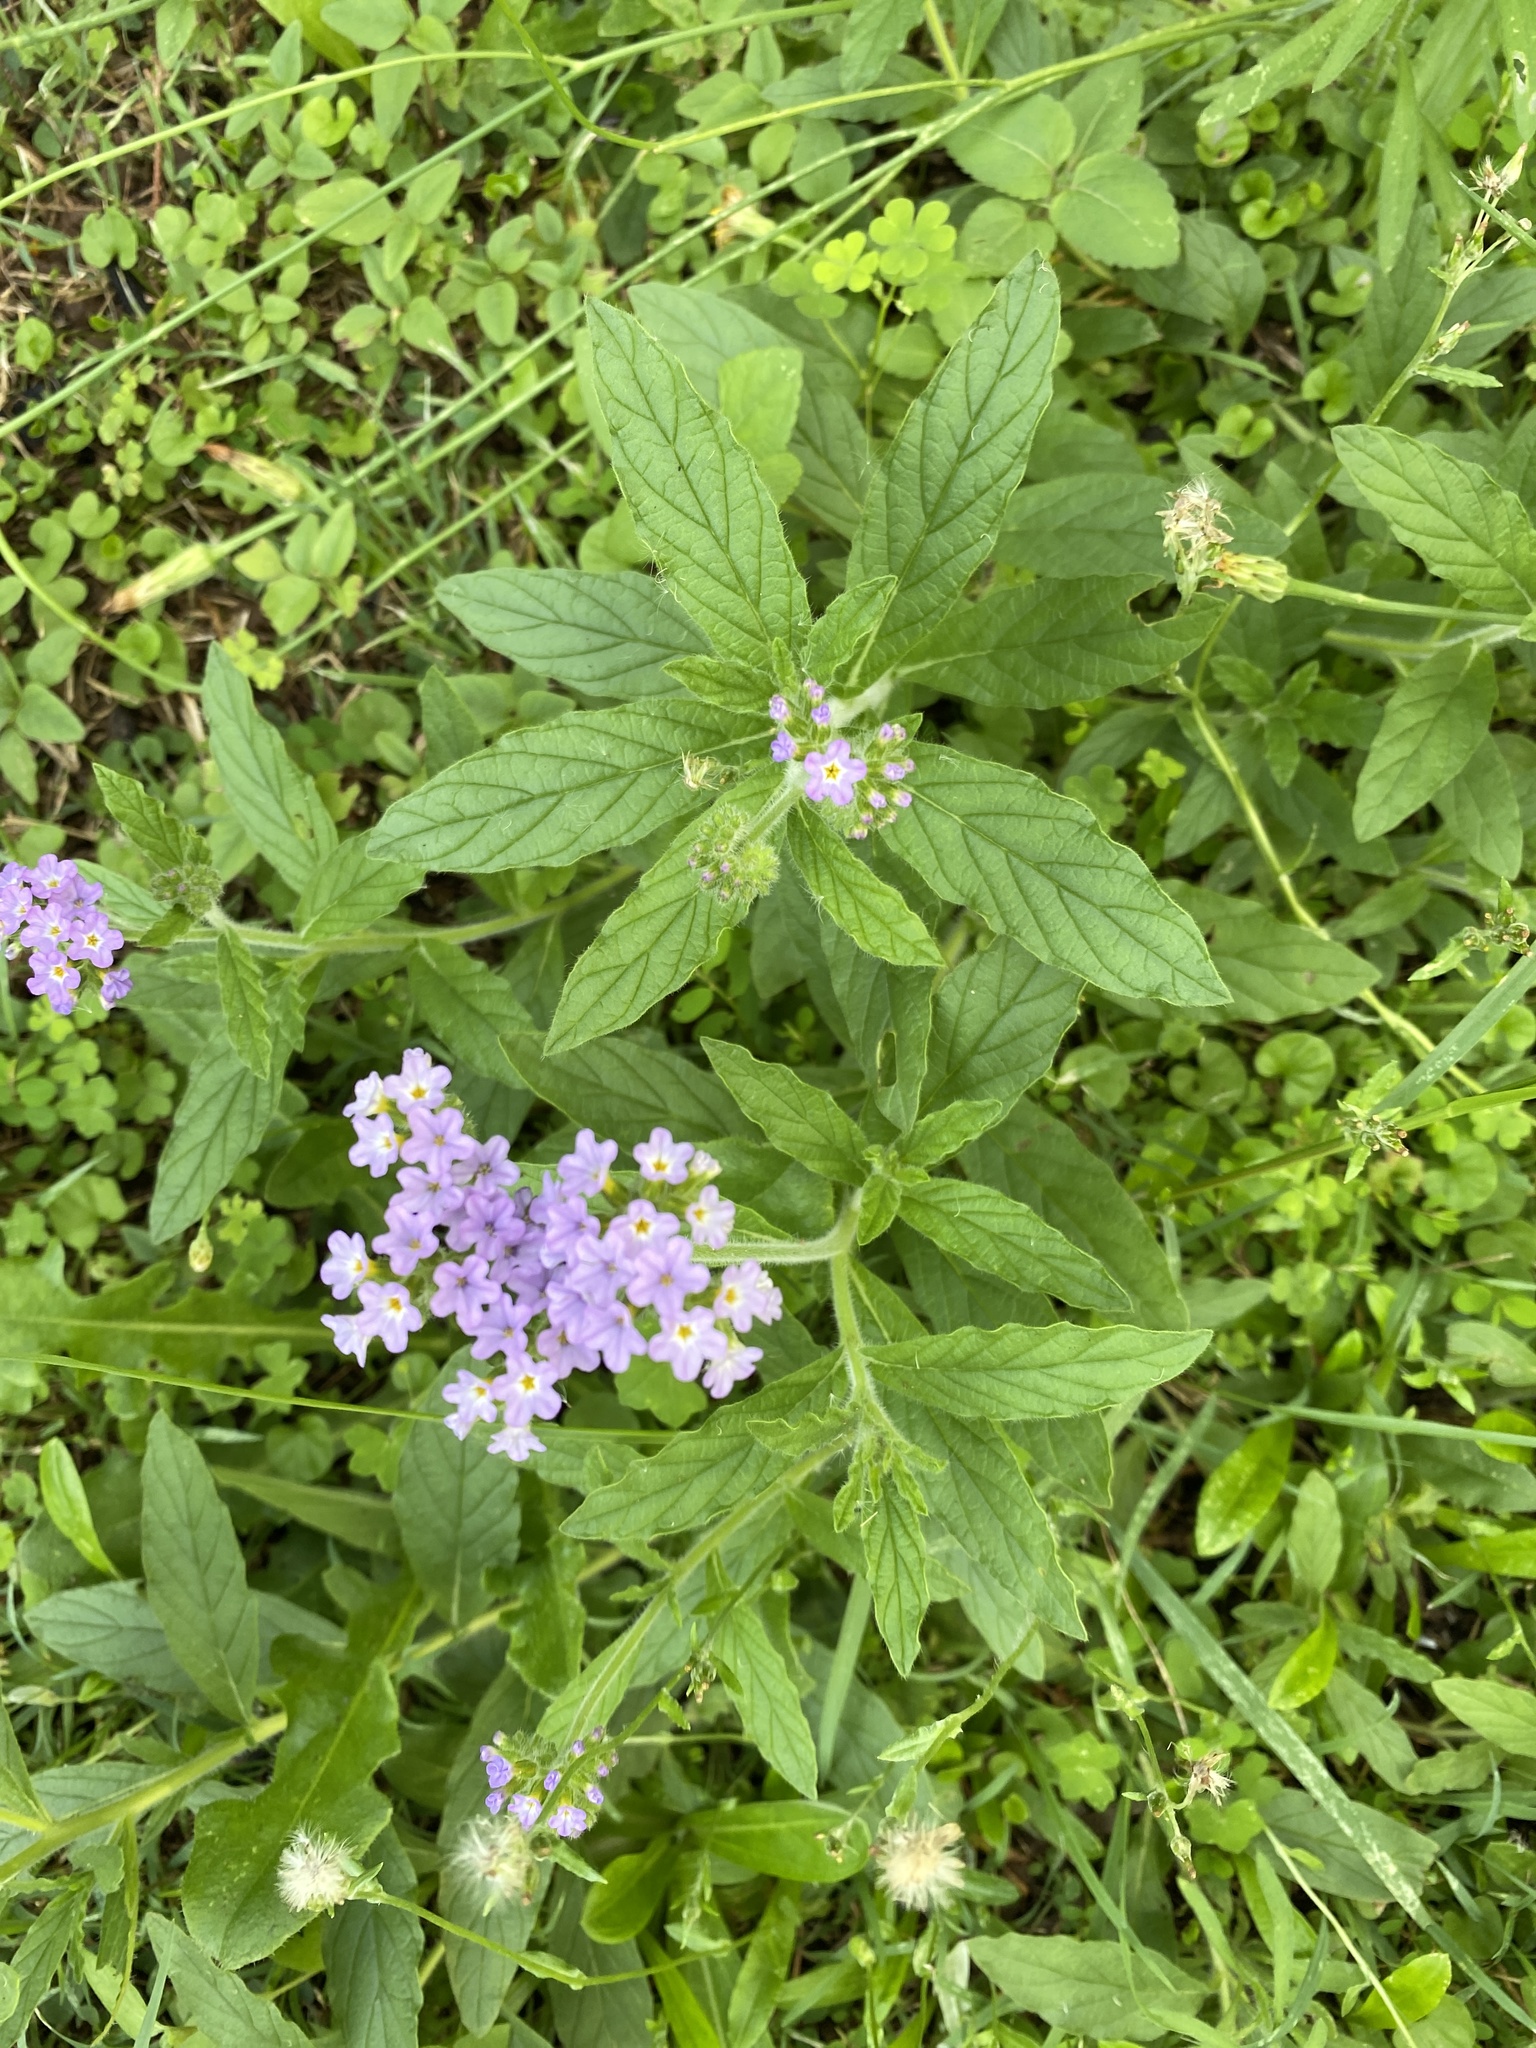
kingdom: Plantae
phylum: Tracheophyta
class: Magnoliopsida
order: Boraginales
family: Heliotropiaceae
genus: Heliotropium
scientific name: Heliotropium amplexicaule
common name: Clasping heliotrope
